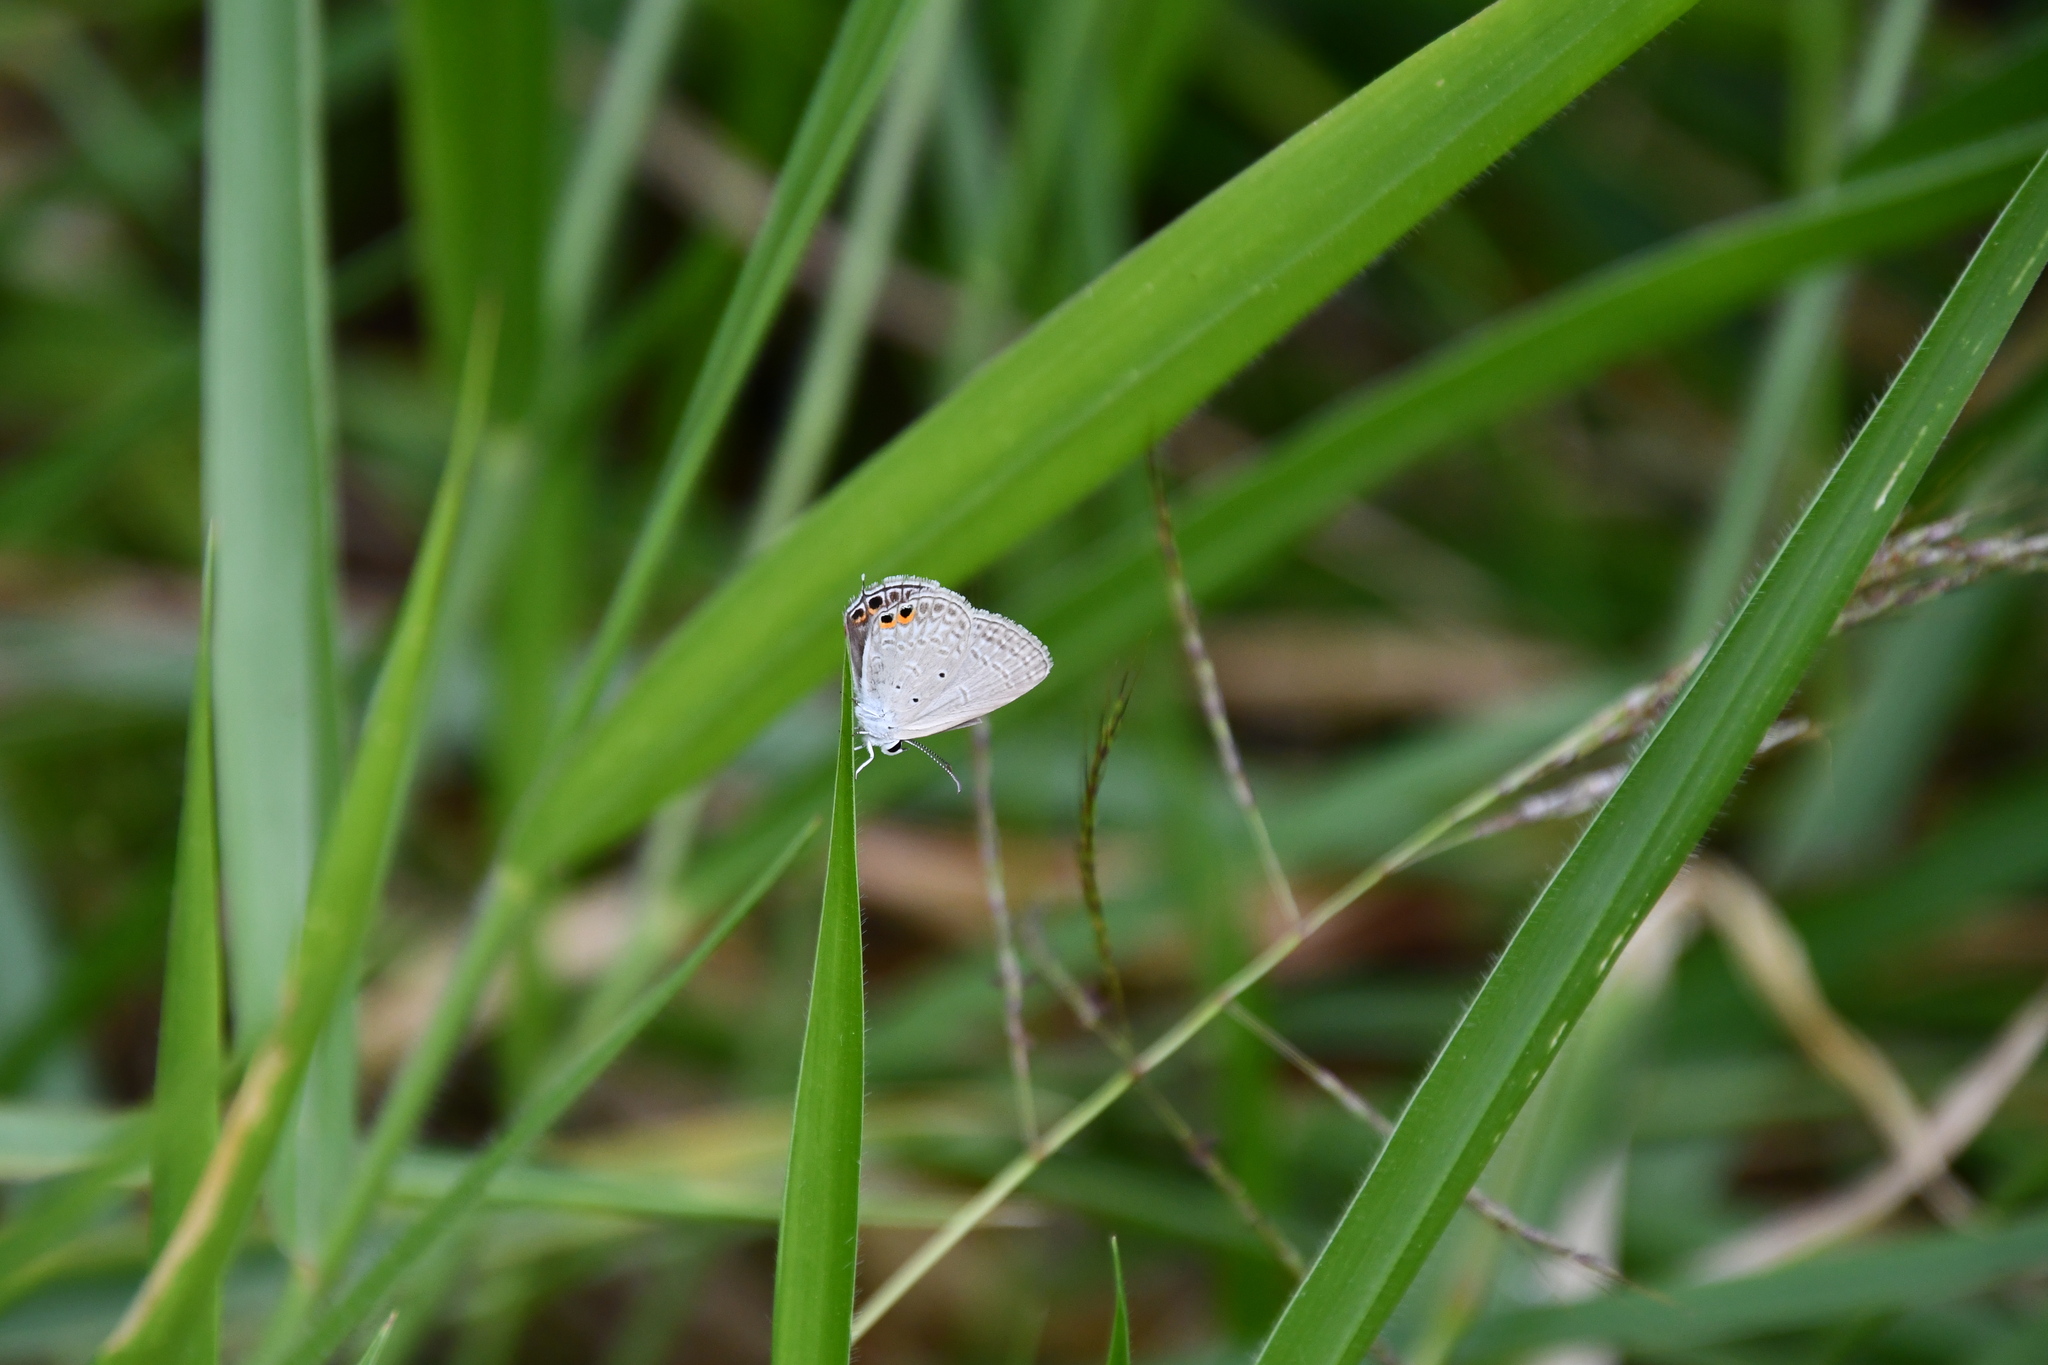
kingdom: Animalia
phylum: Arthropoda
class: Insecta
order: Lepidoptera
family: Lycaenidae
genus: Euchrysops
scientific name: Euchrysops cnejus
